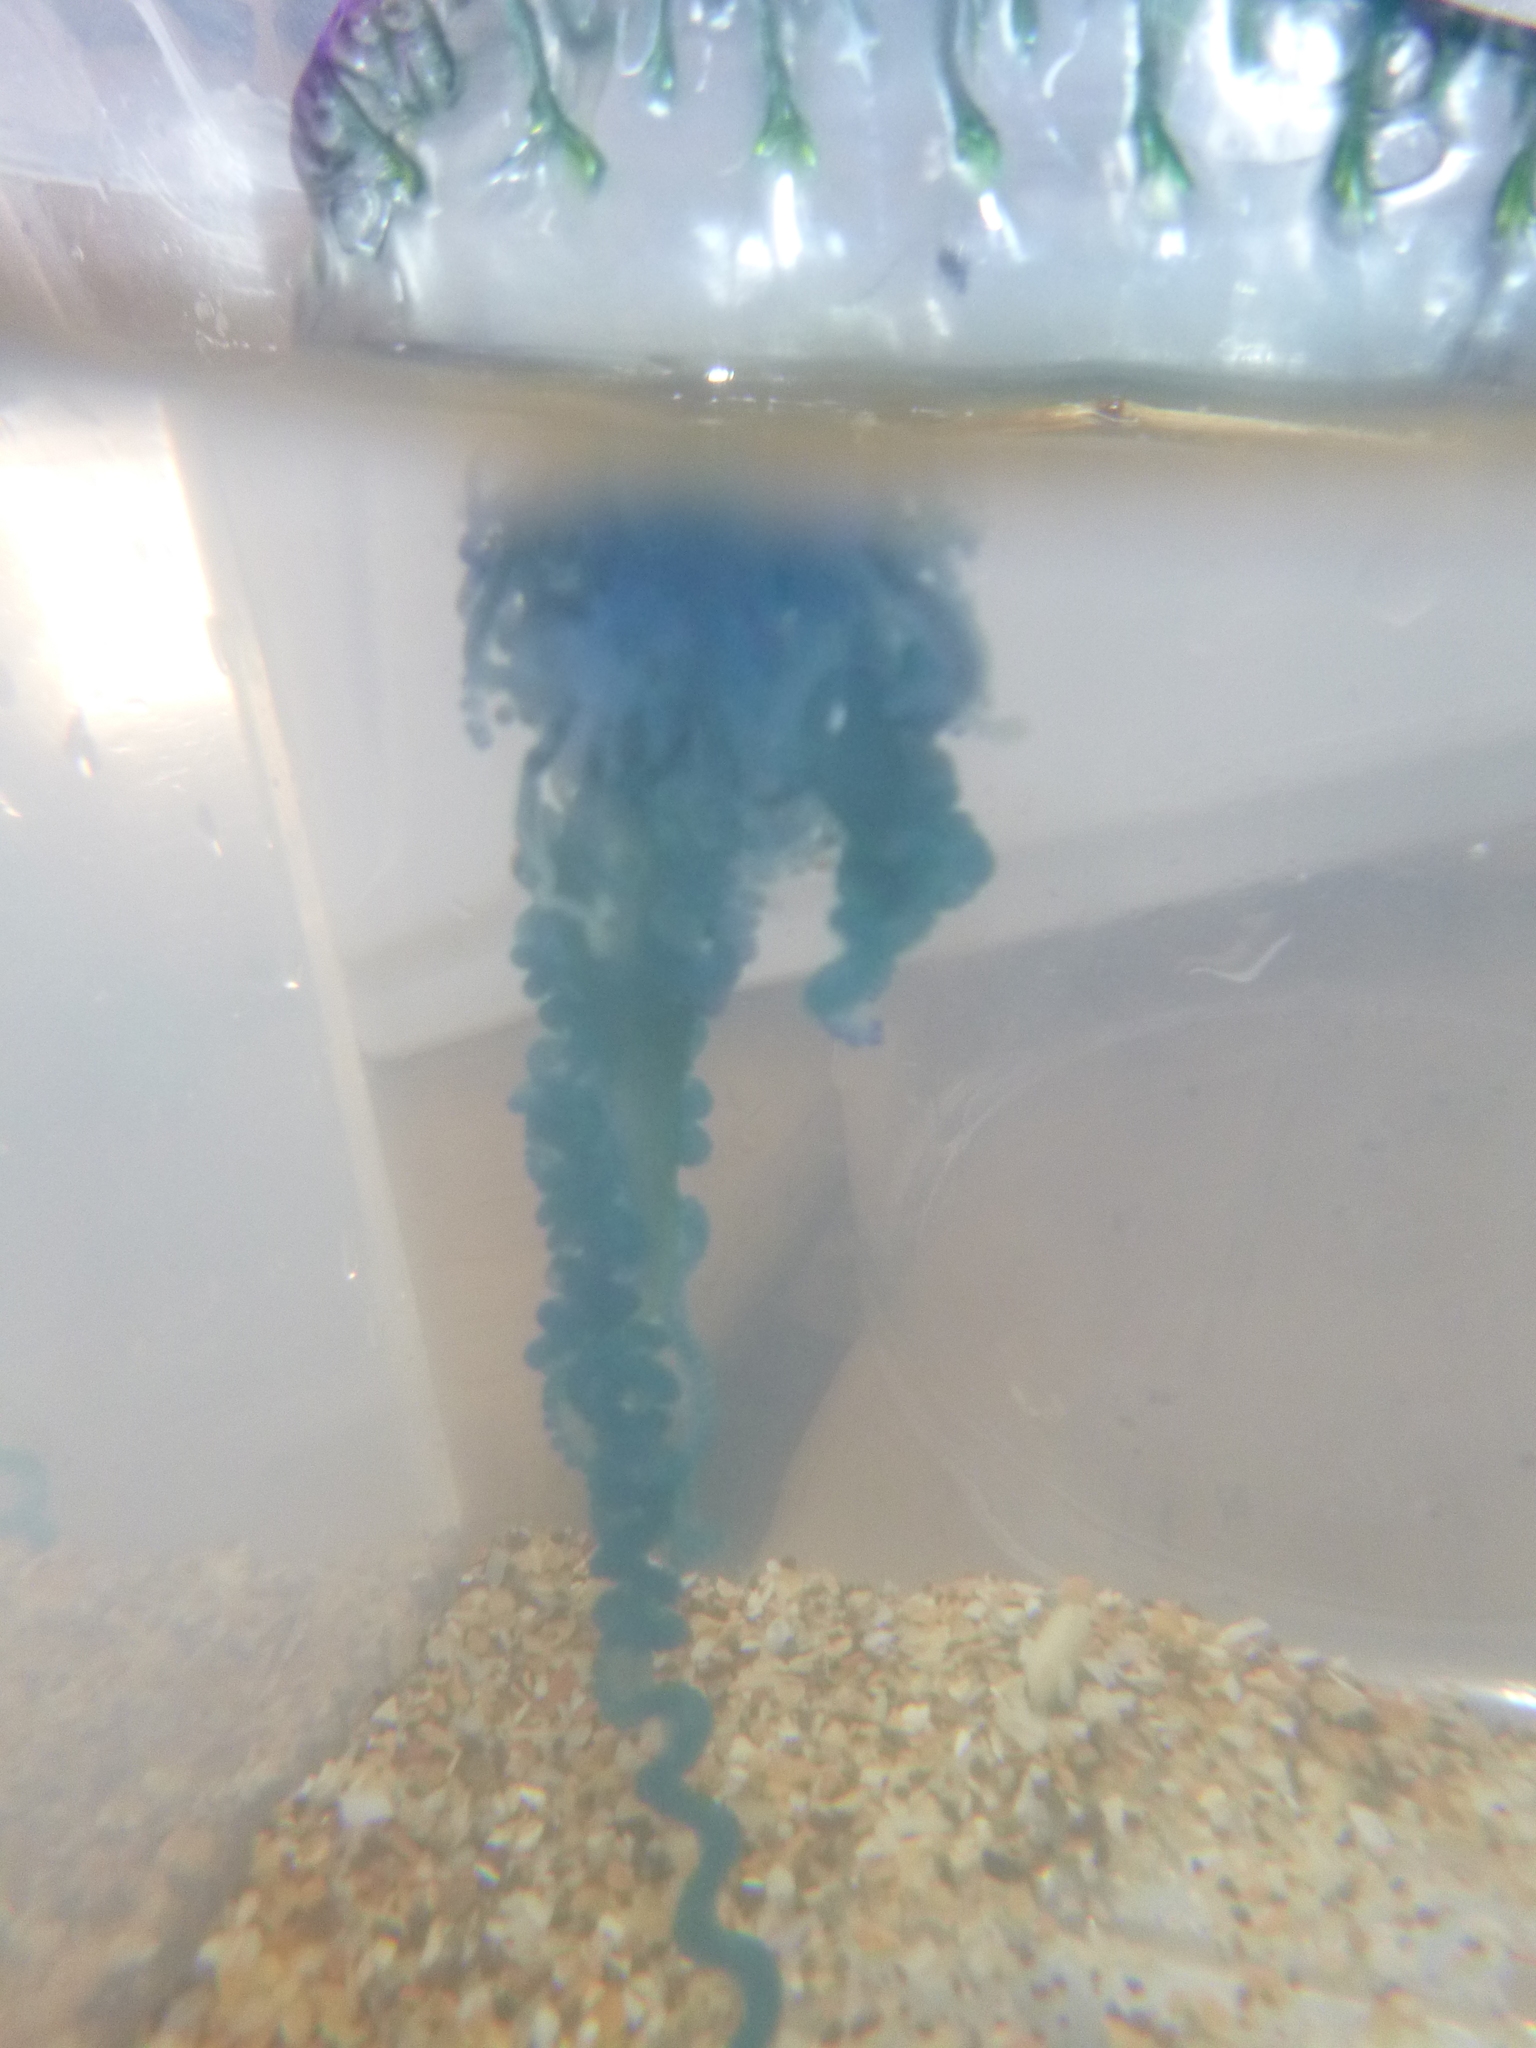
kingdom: Animalia
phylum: Cnidaria
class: Hydrozoa
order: Siphonophorae
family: Physaliidae
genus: Physalia
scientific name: Physalia physalis
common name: Portuguese man-of-war
